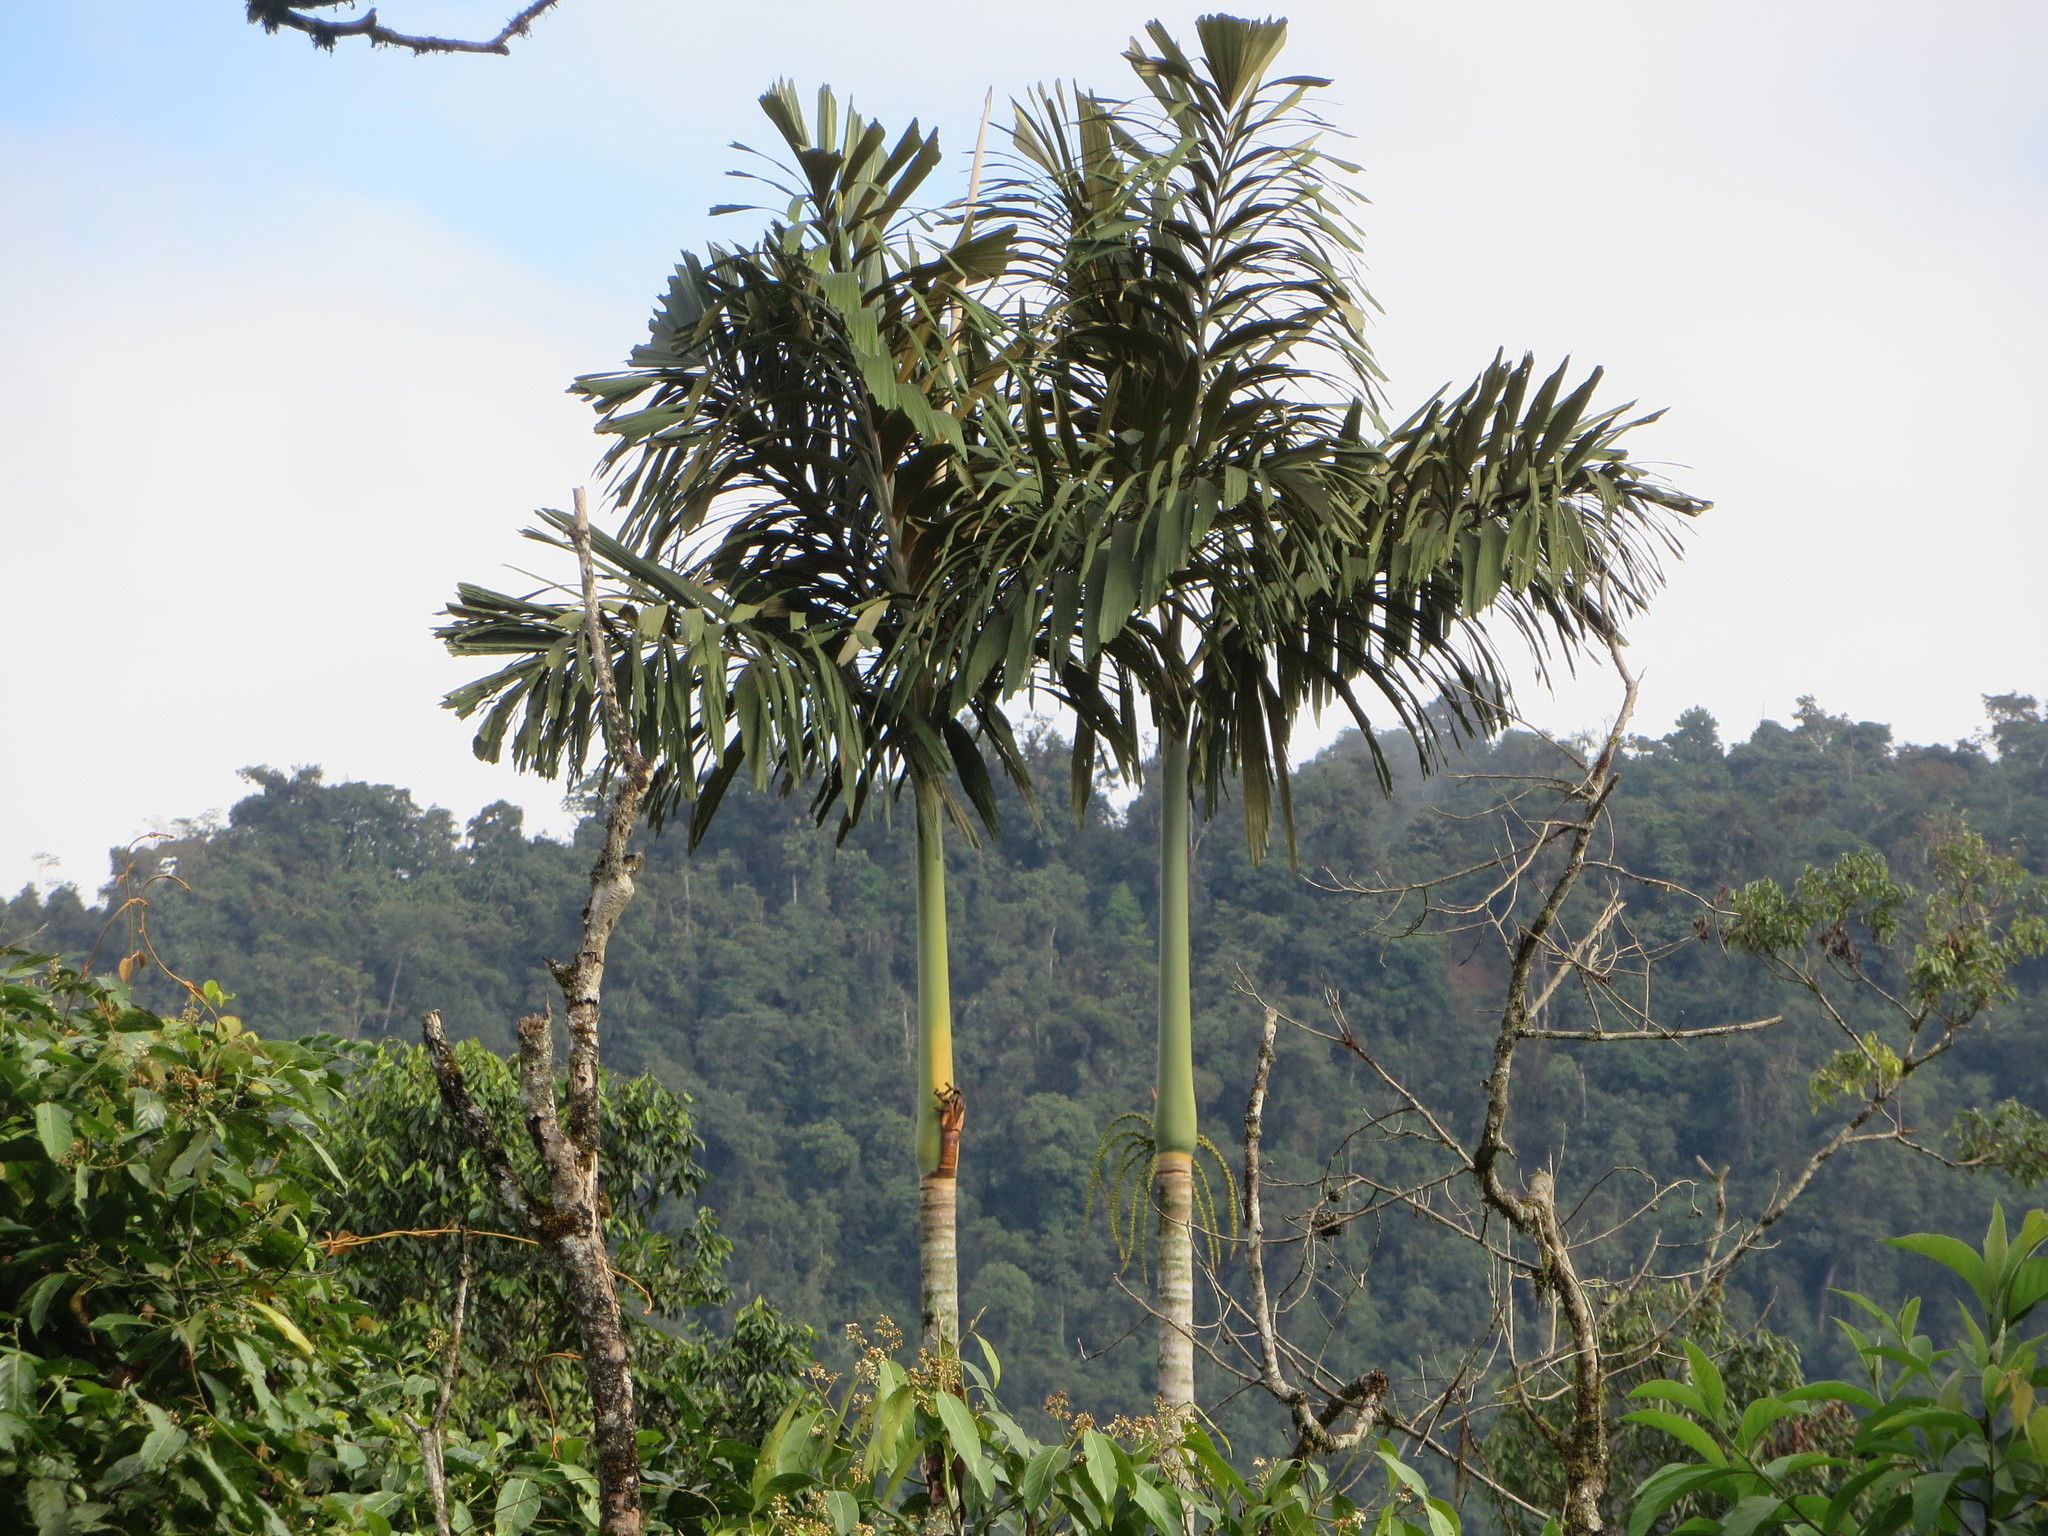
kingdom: Plantae
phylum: Tracheophyta
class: Liliopsida
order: Arecales
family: Arecaceae
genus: Socratea
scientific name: Socratea hecatonandra
